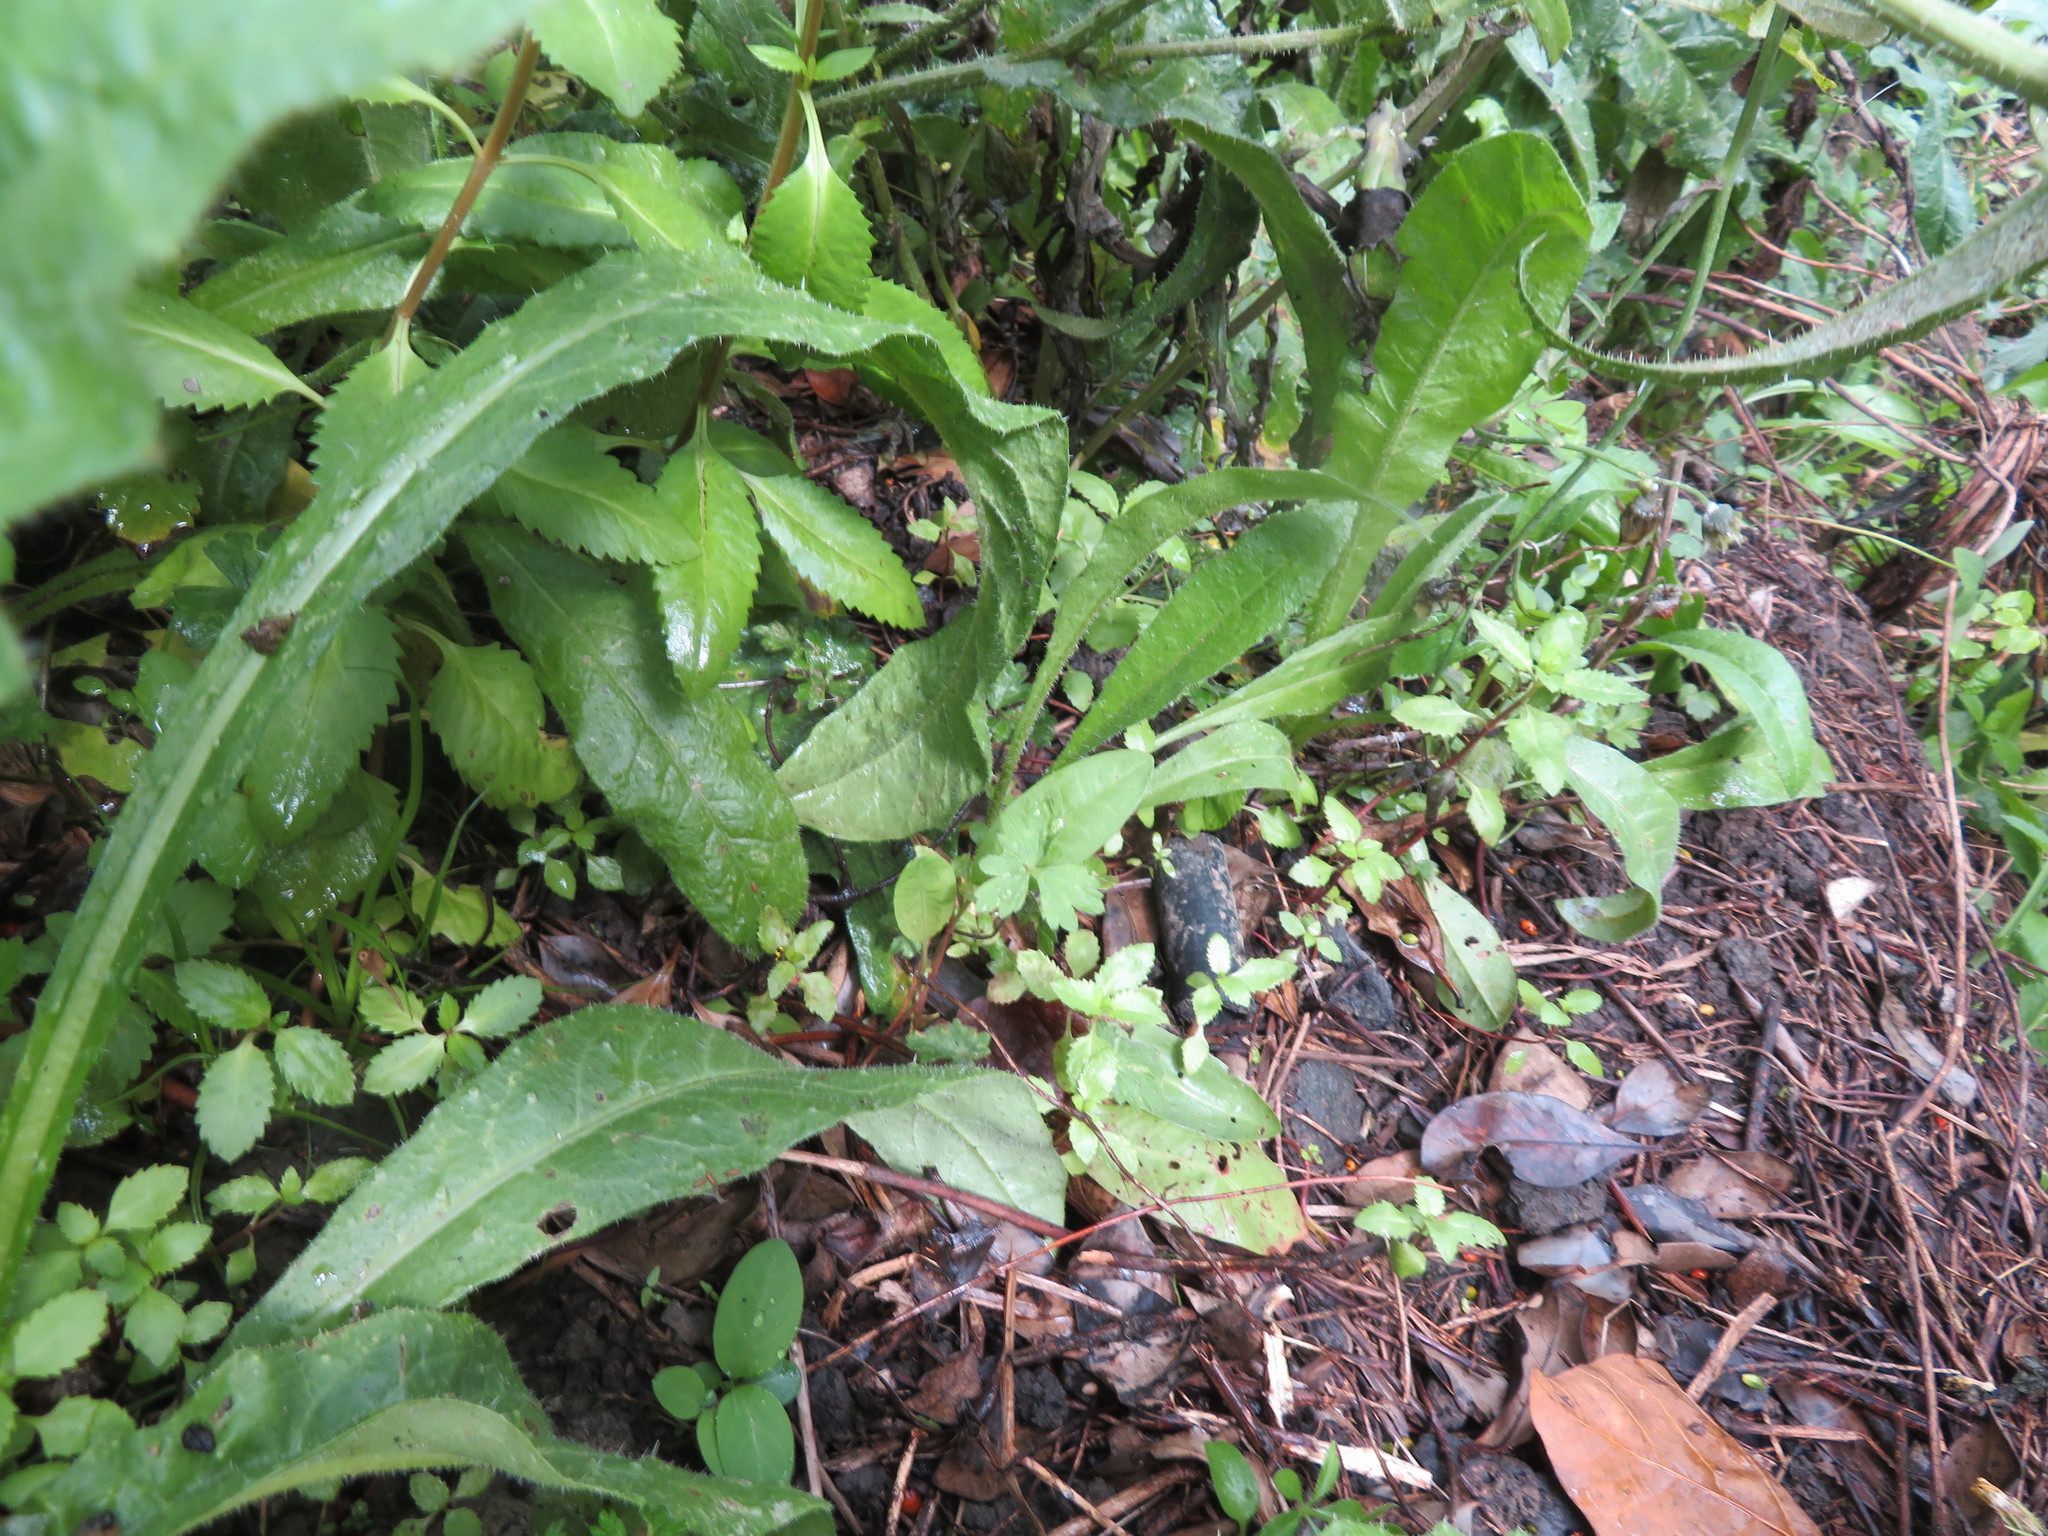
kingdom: Plantae
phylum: Tracheophyta
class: Magnoliopsida
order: Saxifragales
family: Haloragaceae
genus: Haloragis
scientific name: Haloragis erecta
